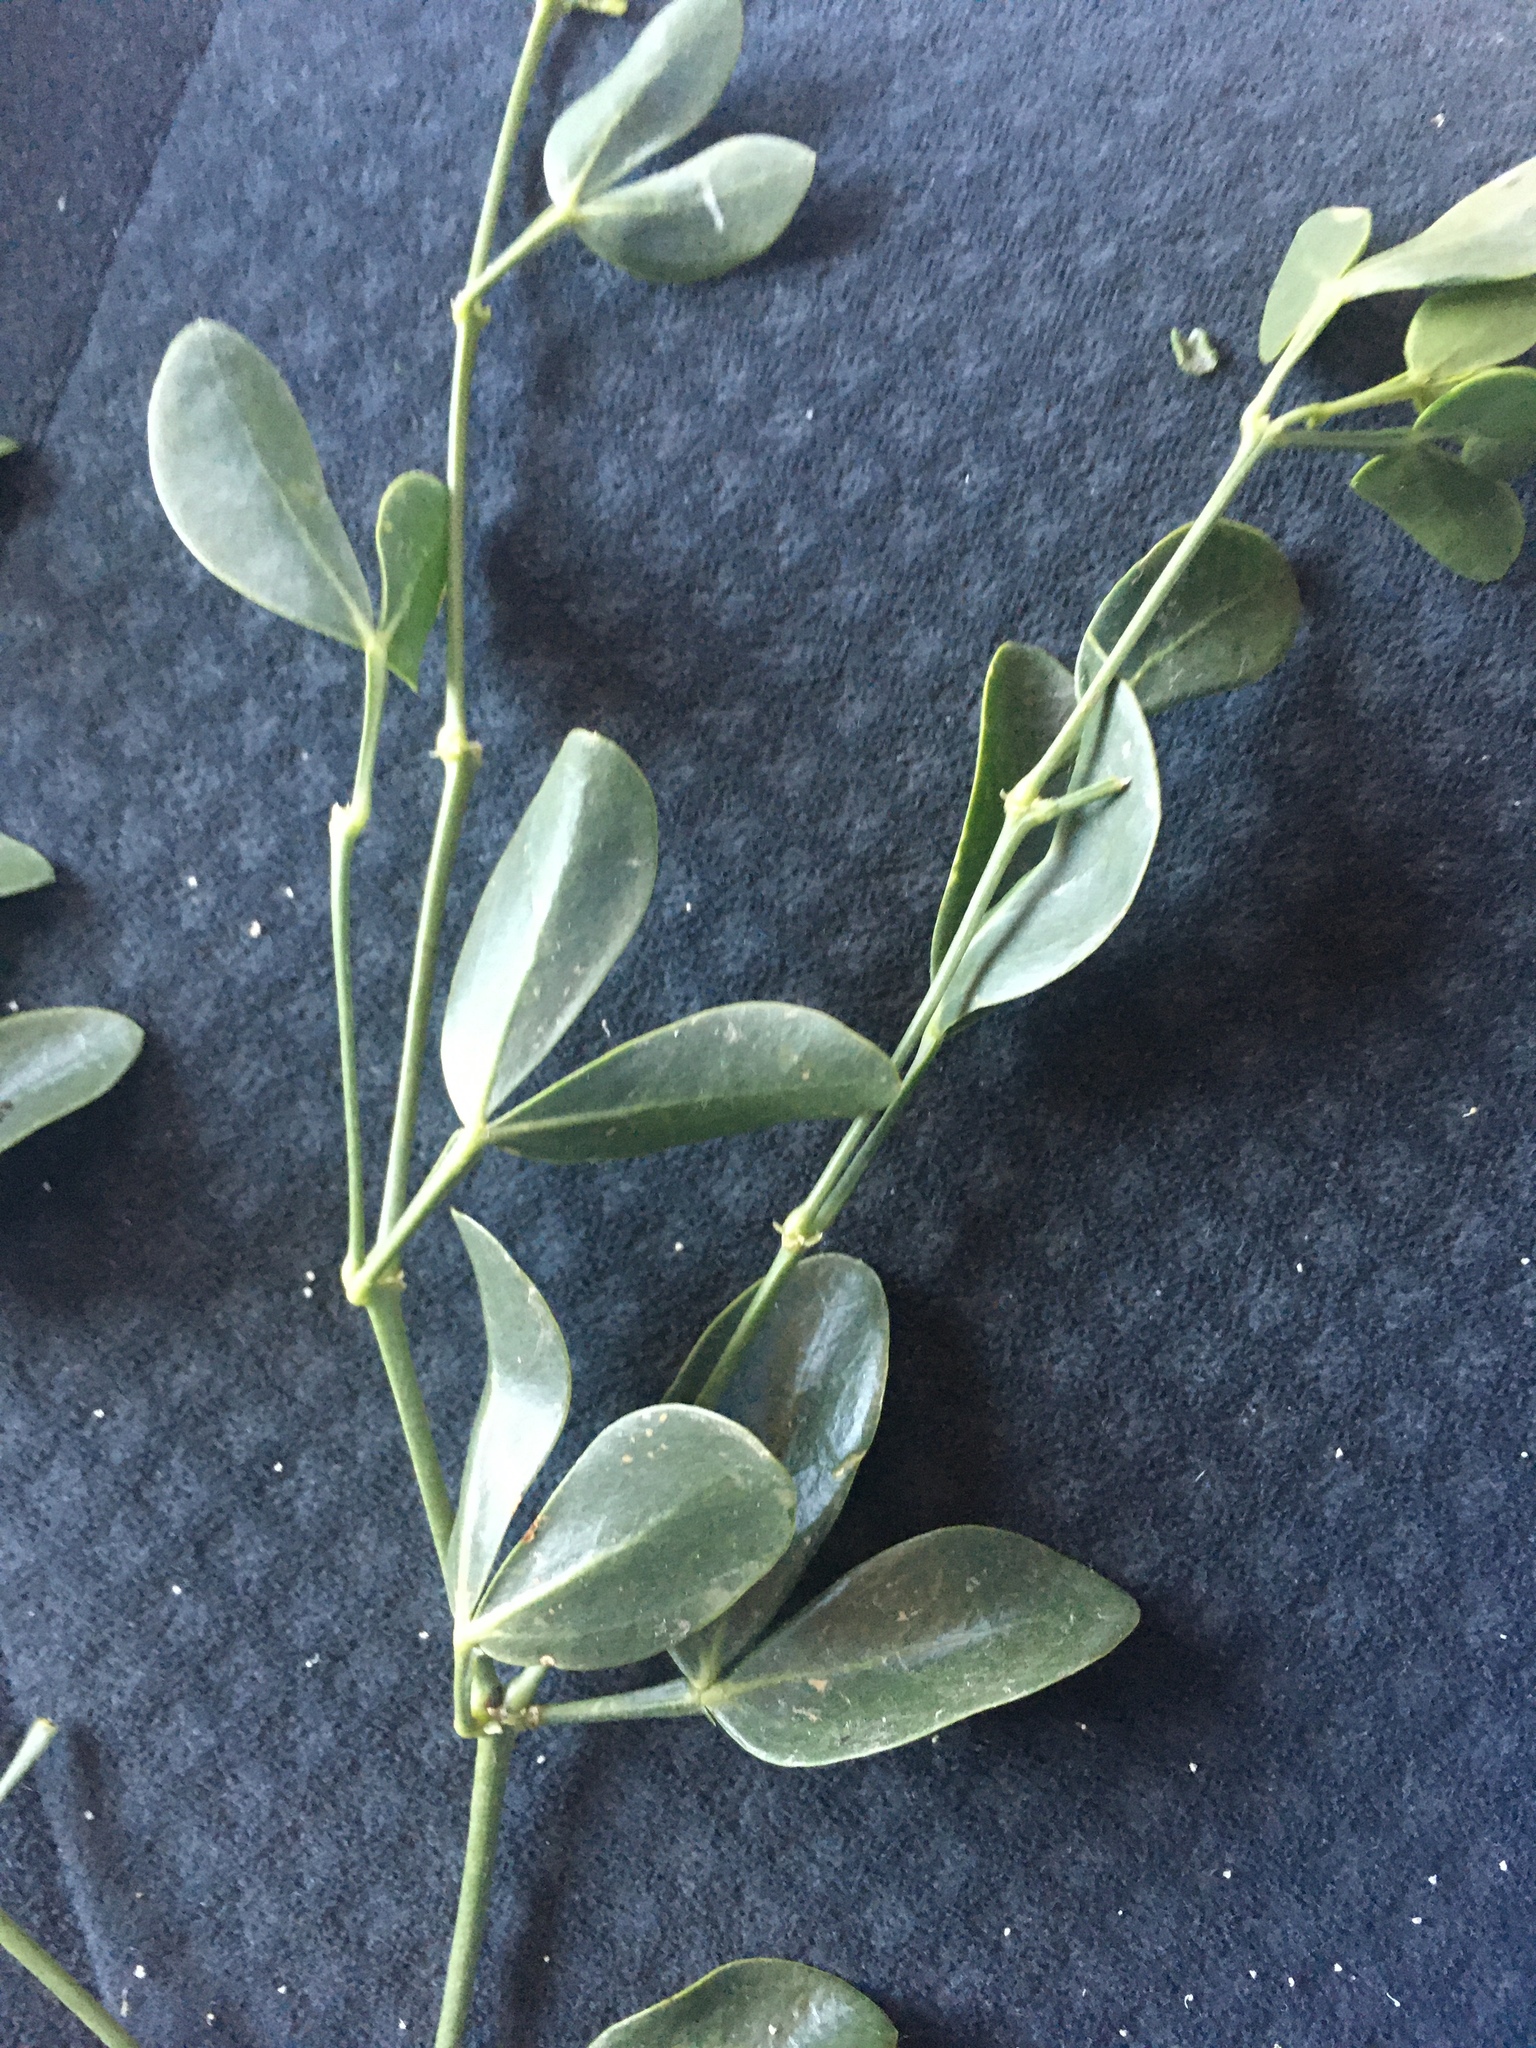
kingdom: Plantae
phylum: Tracheophyta
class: Magnoliopsida
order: Zygophyllales
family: Zygophyllaceae
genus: Zygophyllum
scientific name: Zygophyllum fabago
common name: Syrian beancaper
